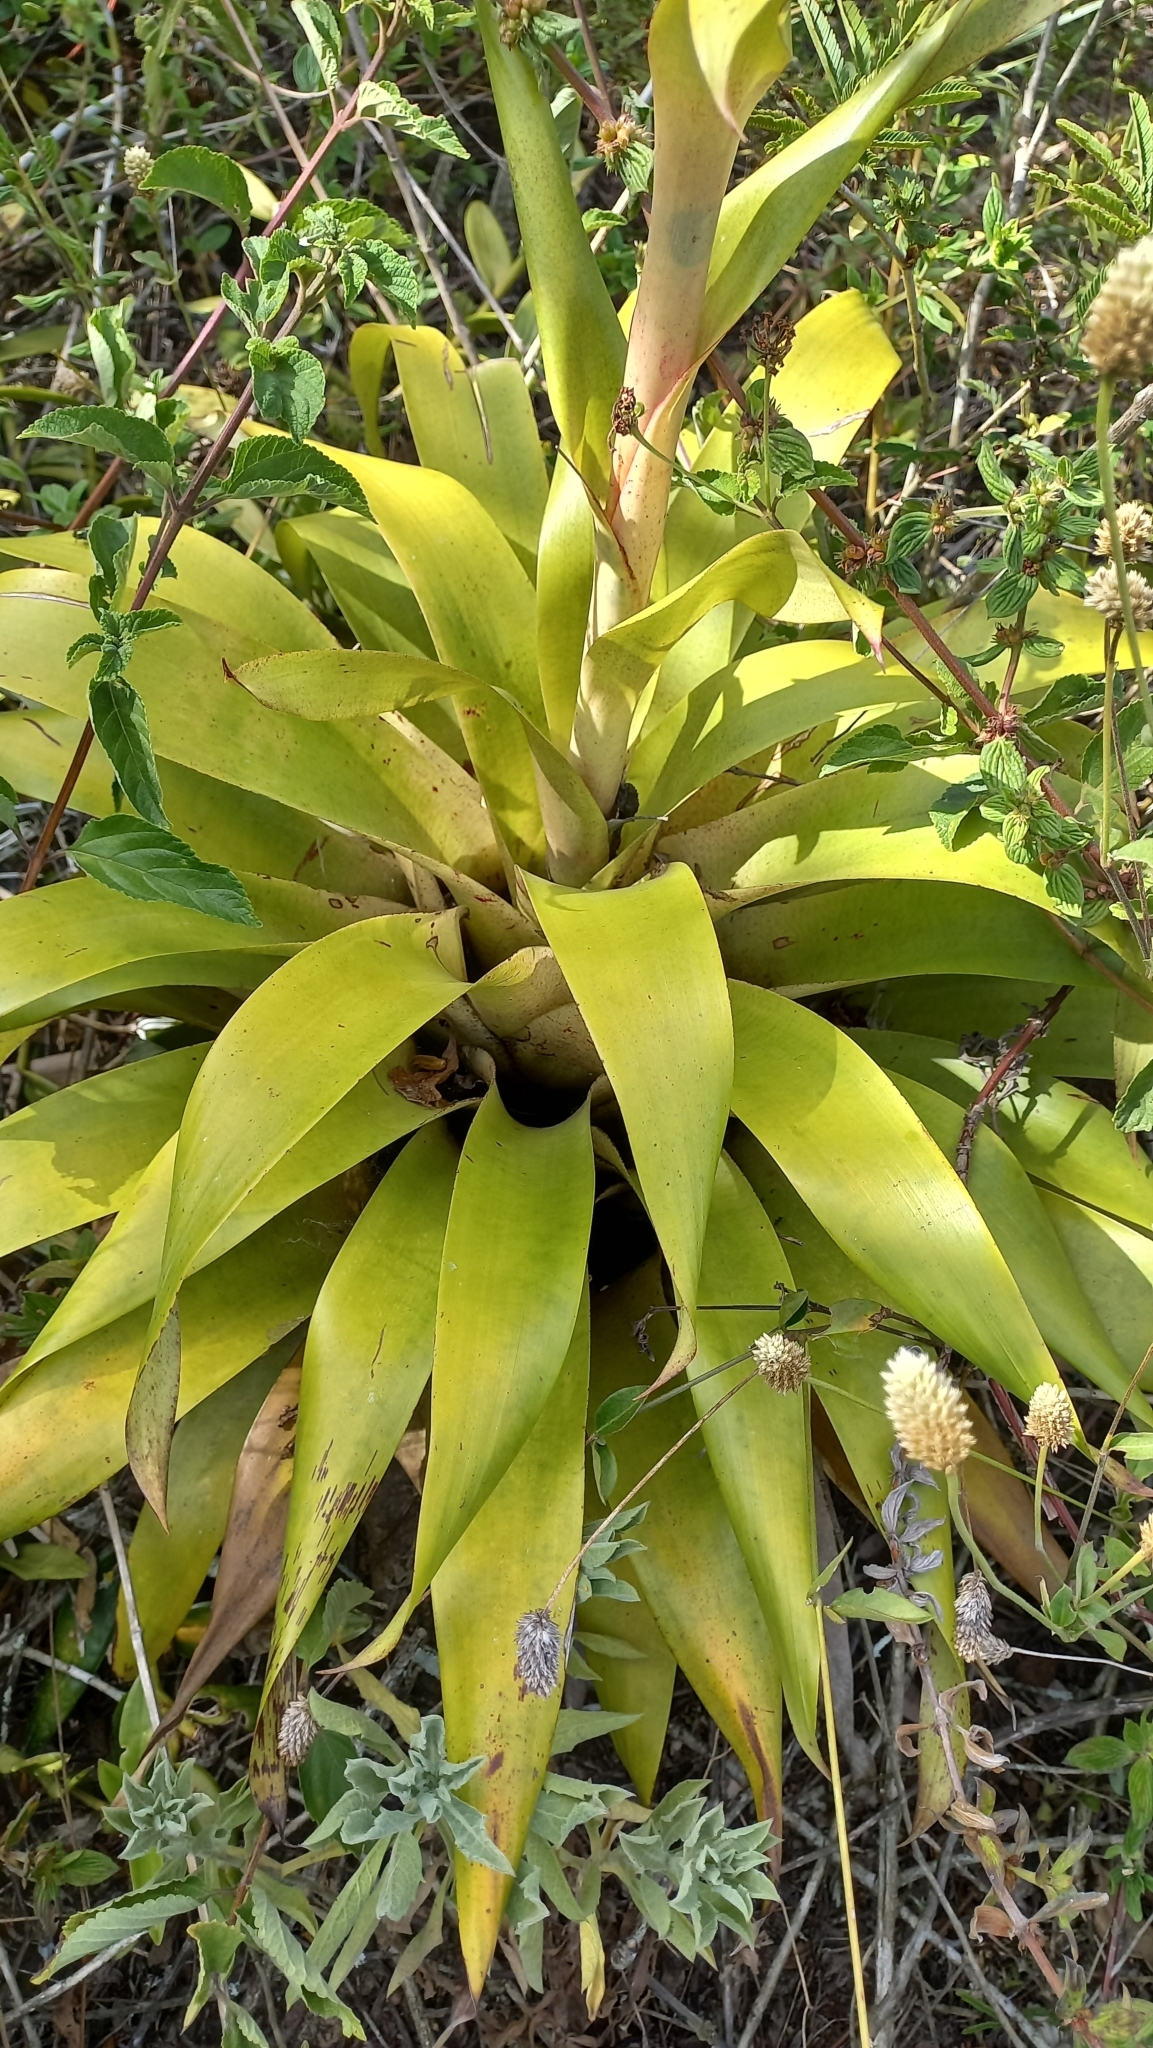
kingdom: Plantae
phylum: Tracheophyta
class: Liliopsida
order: Poales
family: Bromeliaceae
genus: Vriesea
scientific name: Vriesea friburgensis
